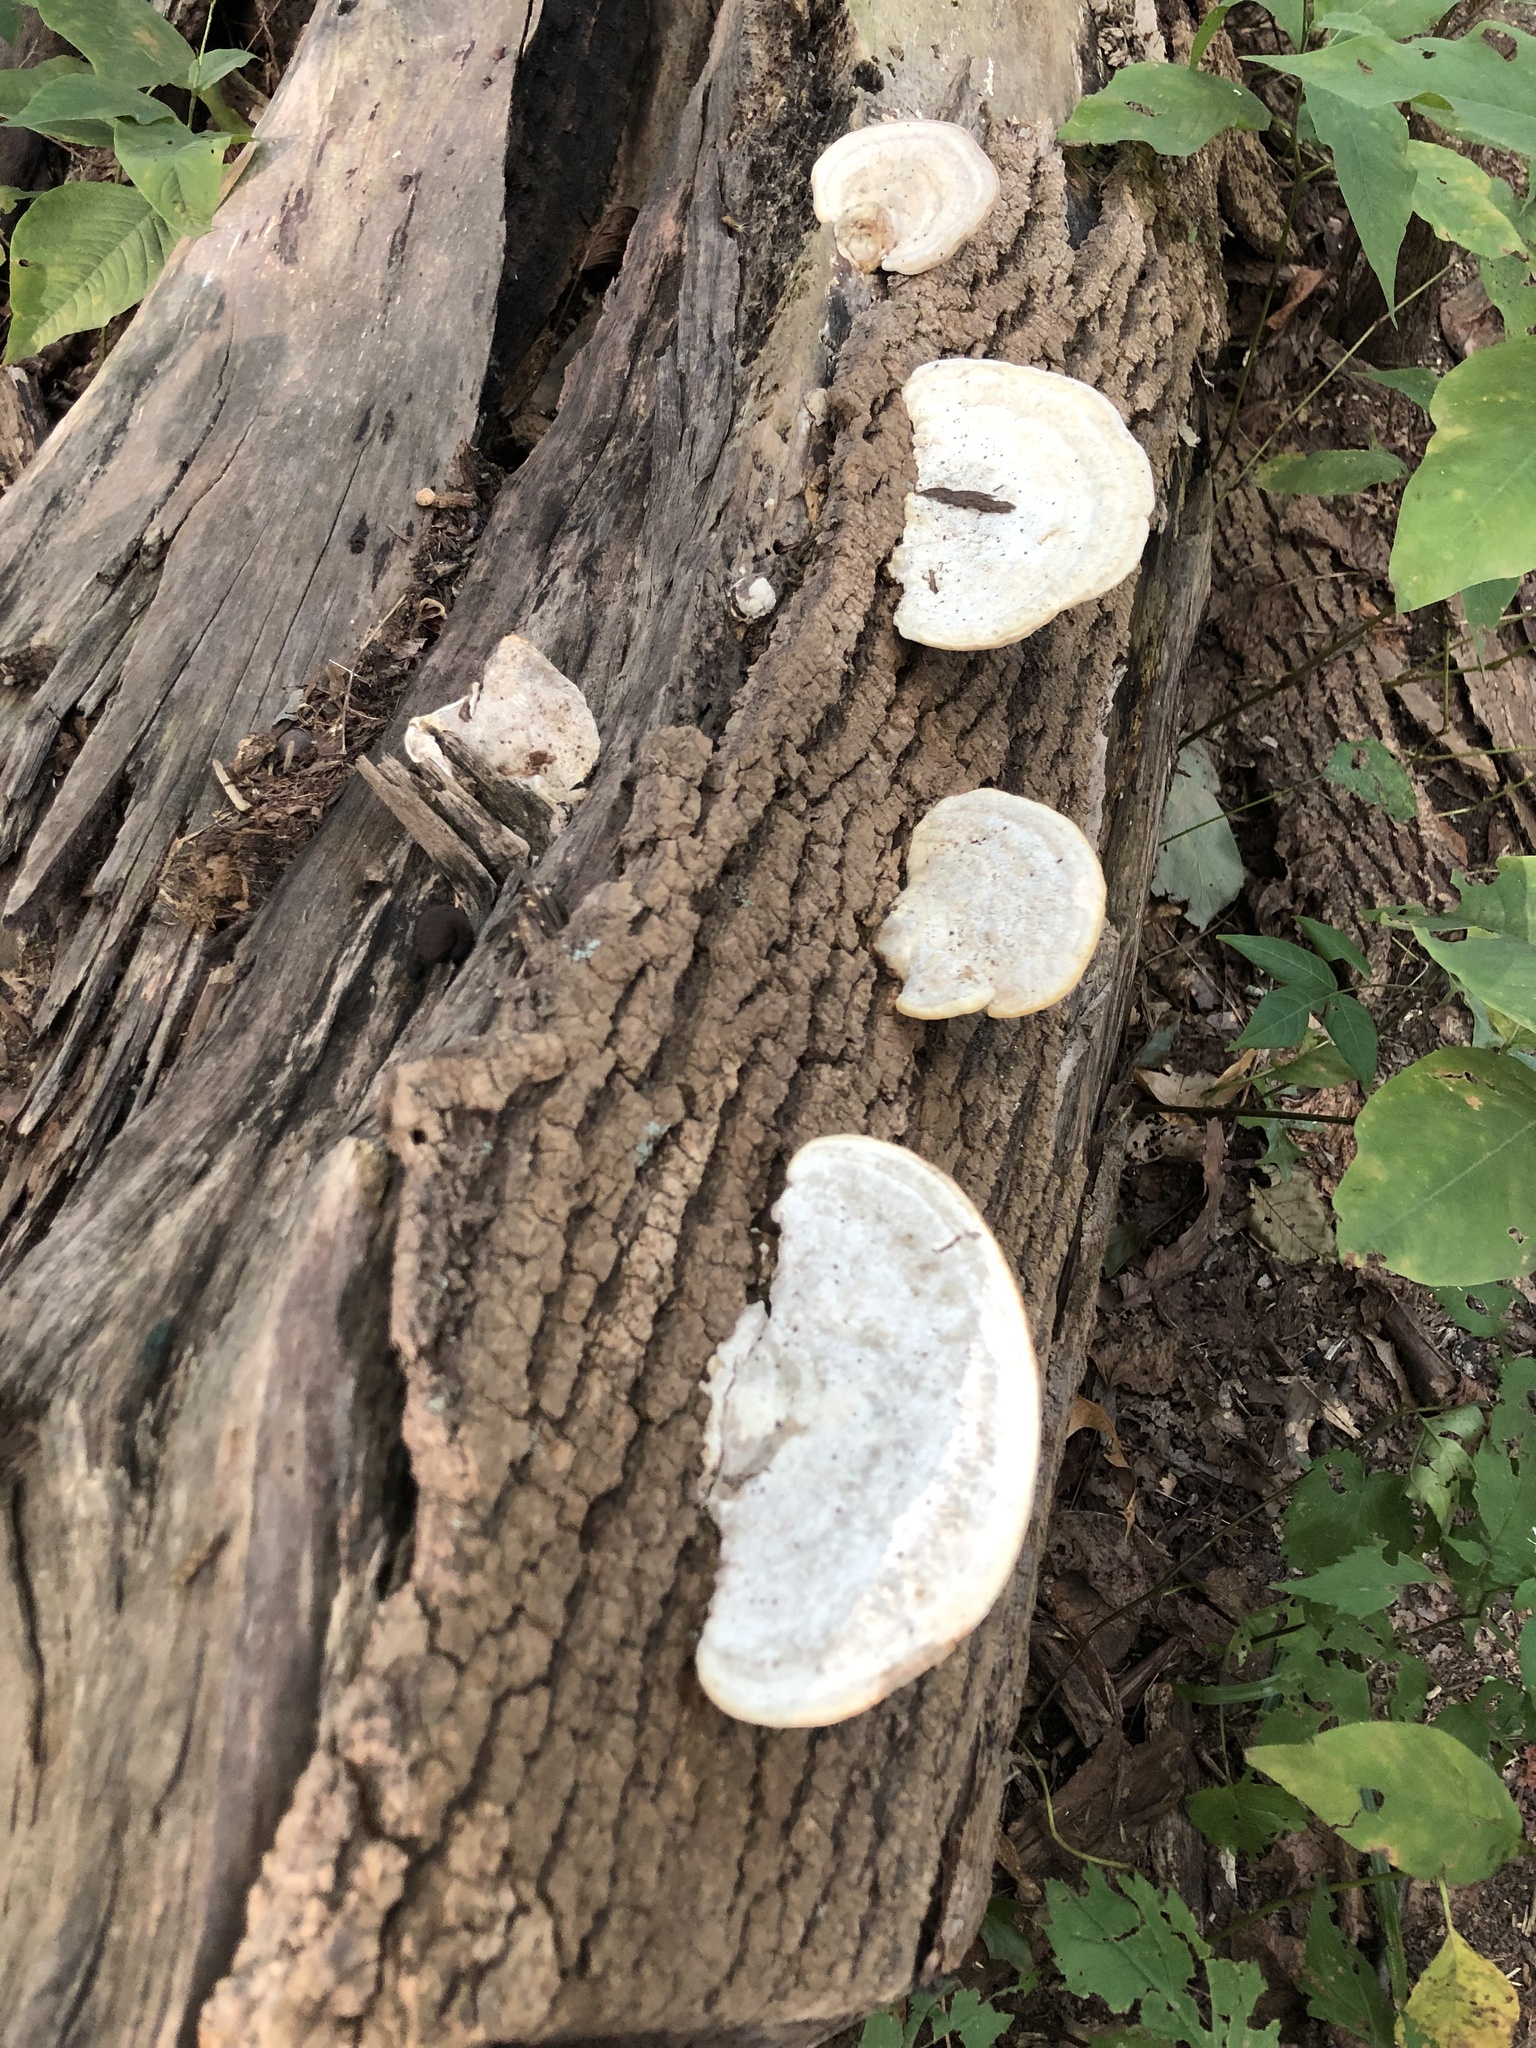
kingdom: Fungi
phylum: Basidiomycota
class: Agaricomycetes
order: Polyporales
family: Polyporaceae
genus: Trametes
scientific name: Trametes gibbosa
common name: Lumpy bracket
